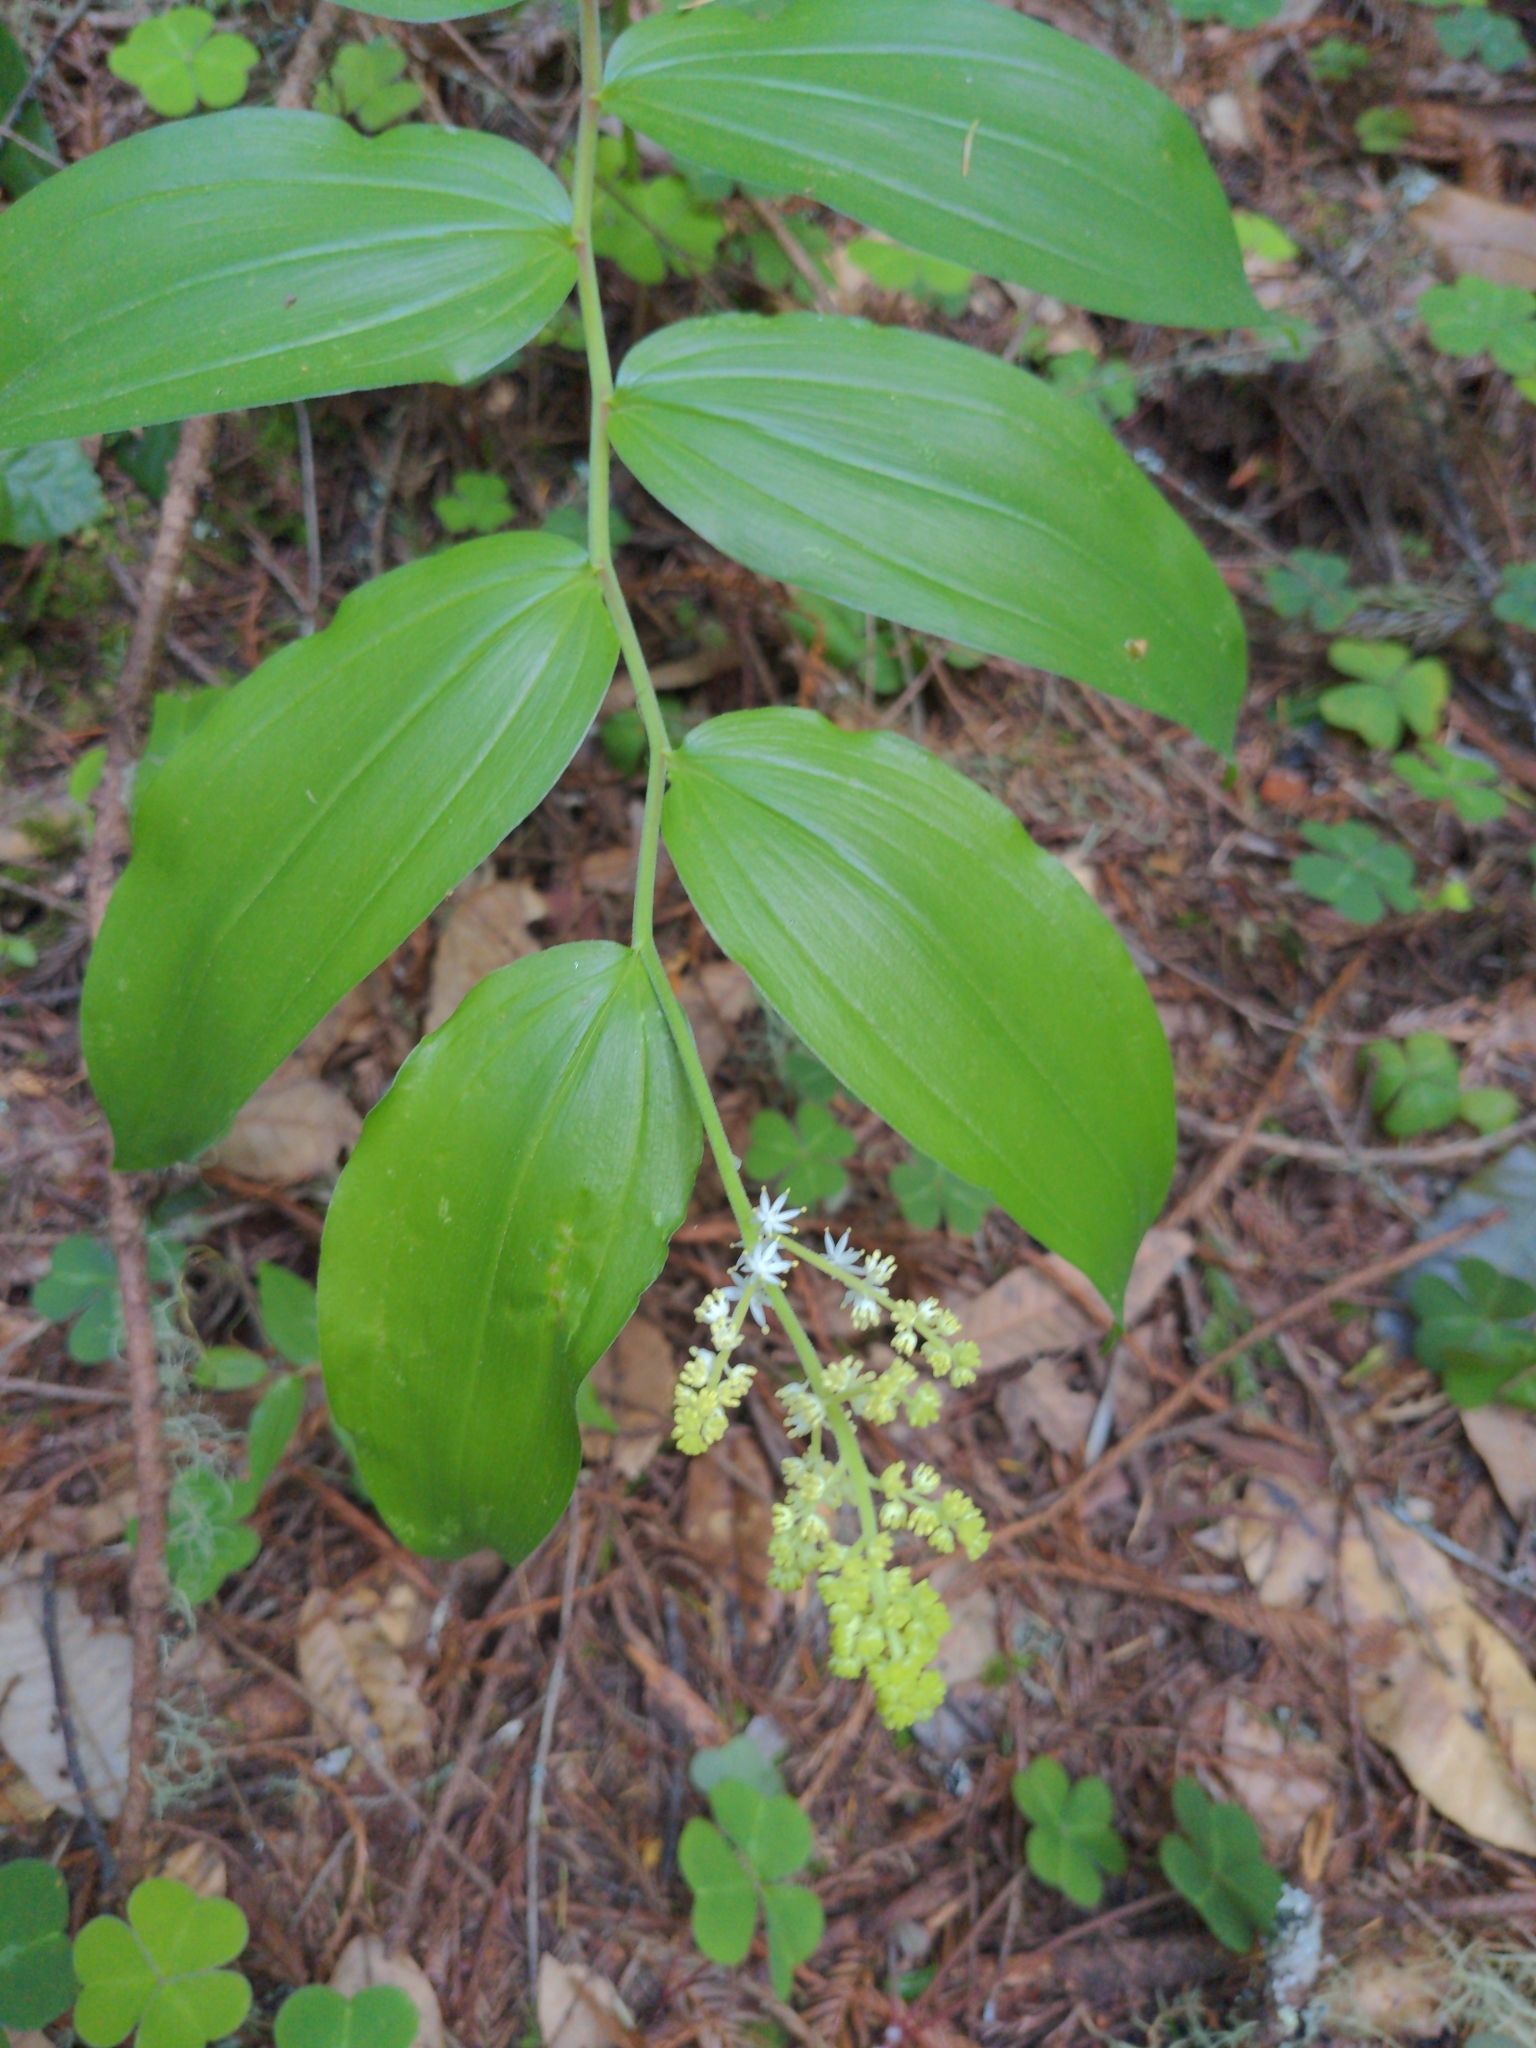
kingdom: Plantae
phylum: Tracheophyta
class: Liliopsida
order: Asparagales
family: Asparagaceae
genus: Maianthemum
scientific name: Maianthemum racemosum
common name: False spikenard
